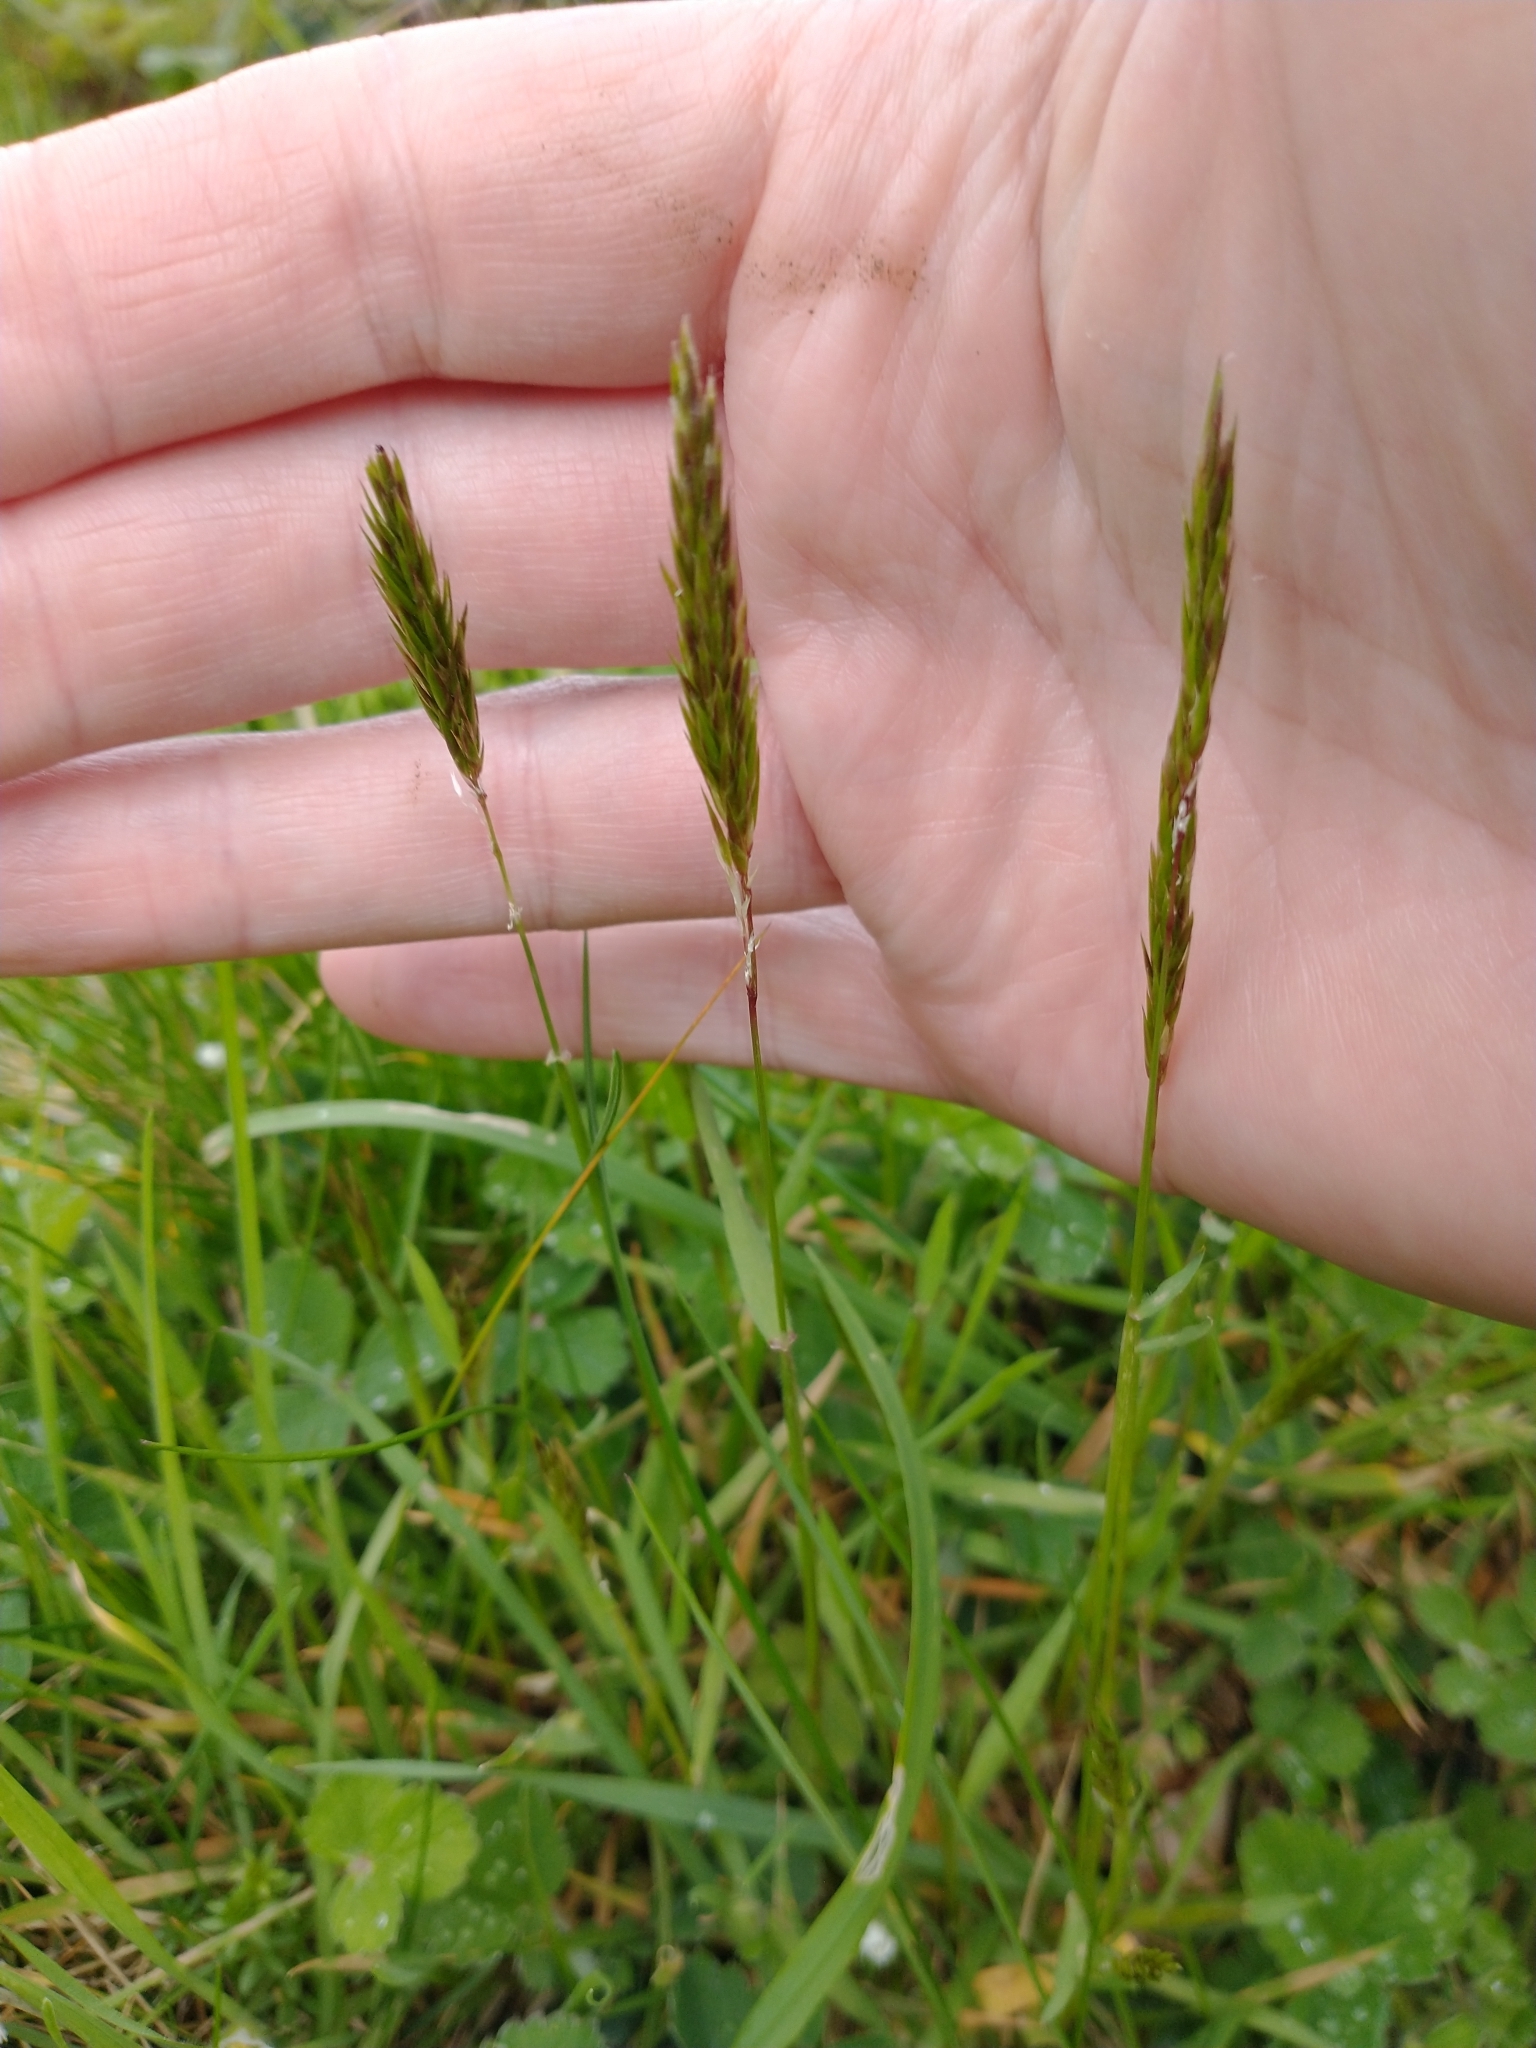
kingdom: Plantae
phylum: Tracheophyta
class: Liliopsida
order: Poales
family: Poaceae
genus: Anthoxanthum
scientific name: Anthoxanthum odoratum
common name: Sweet vernalgrass
